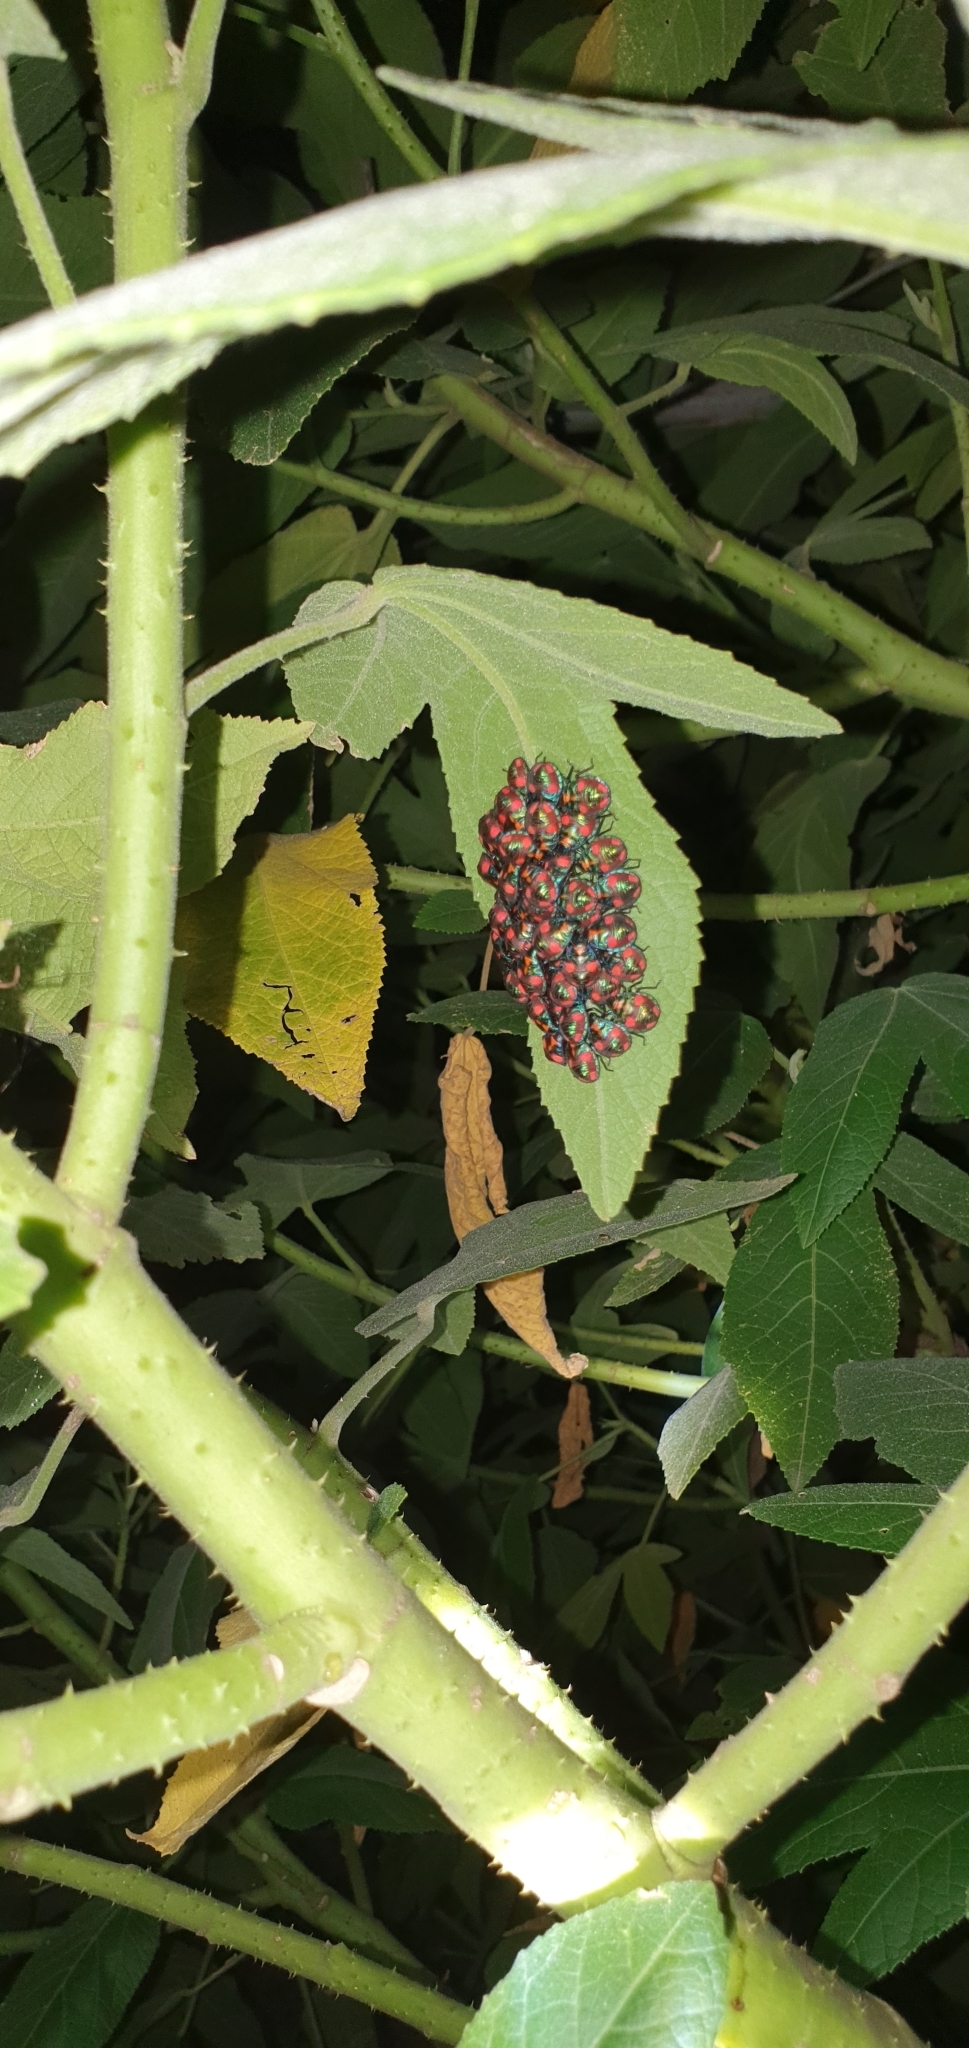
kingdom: Animalia
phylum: Arthropoda
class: Insecta
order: Hemiptera
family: Scutelleridae
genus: Tectocoris
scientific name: Tectocoris diophthalmus
